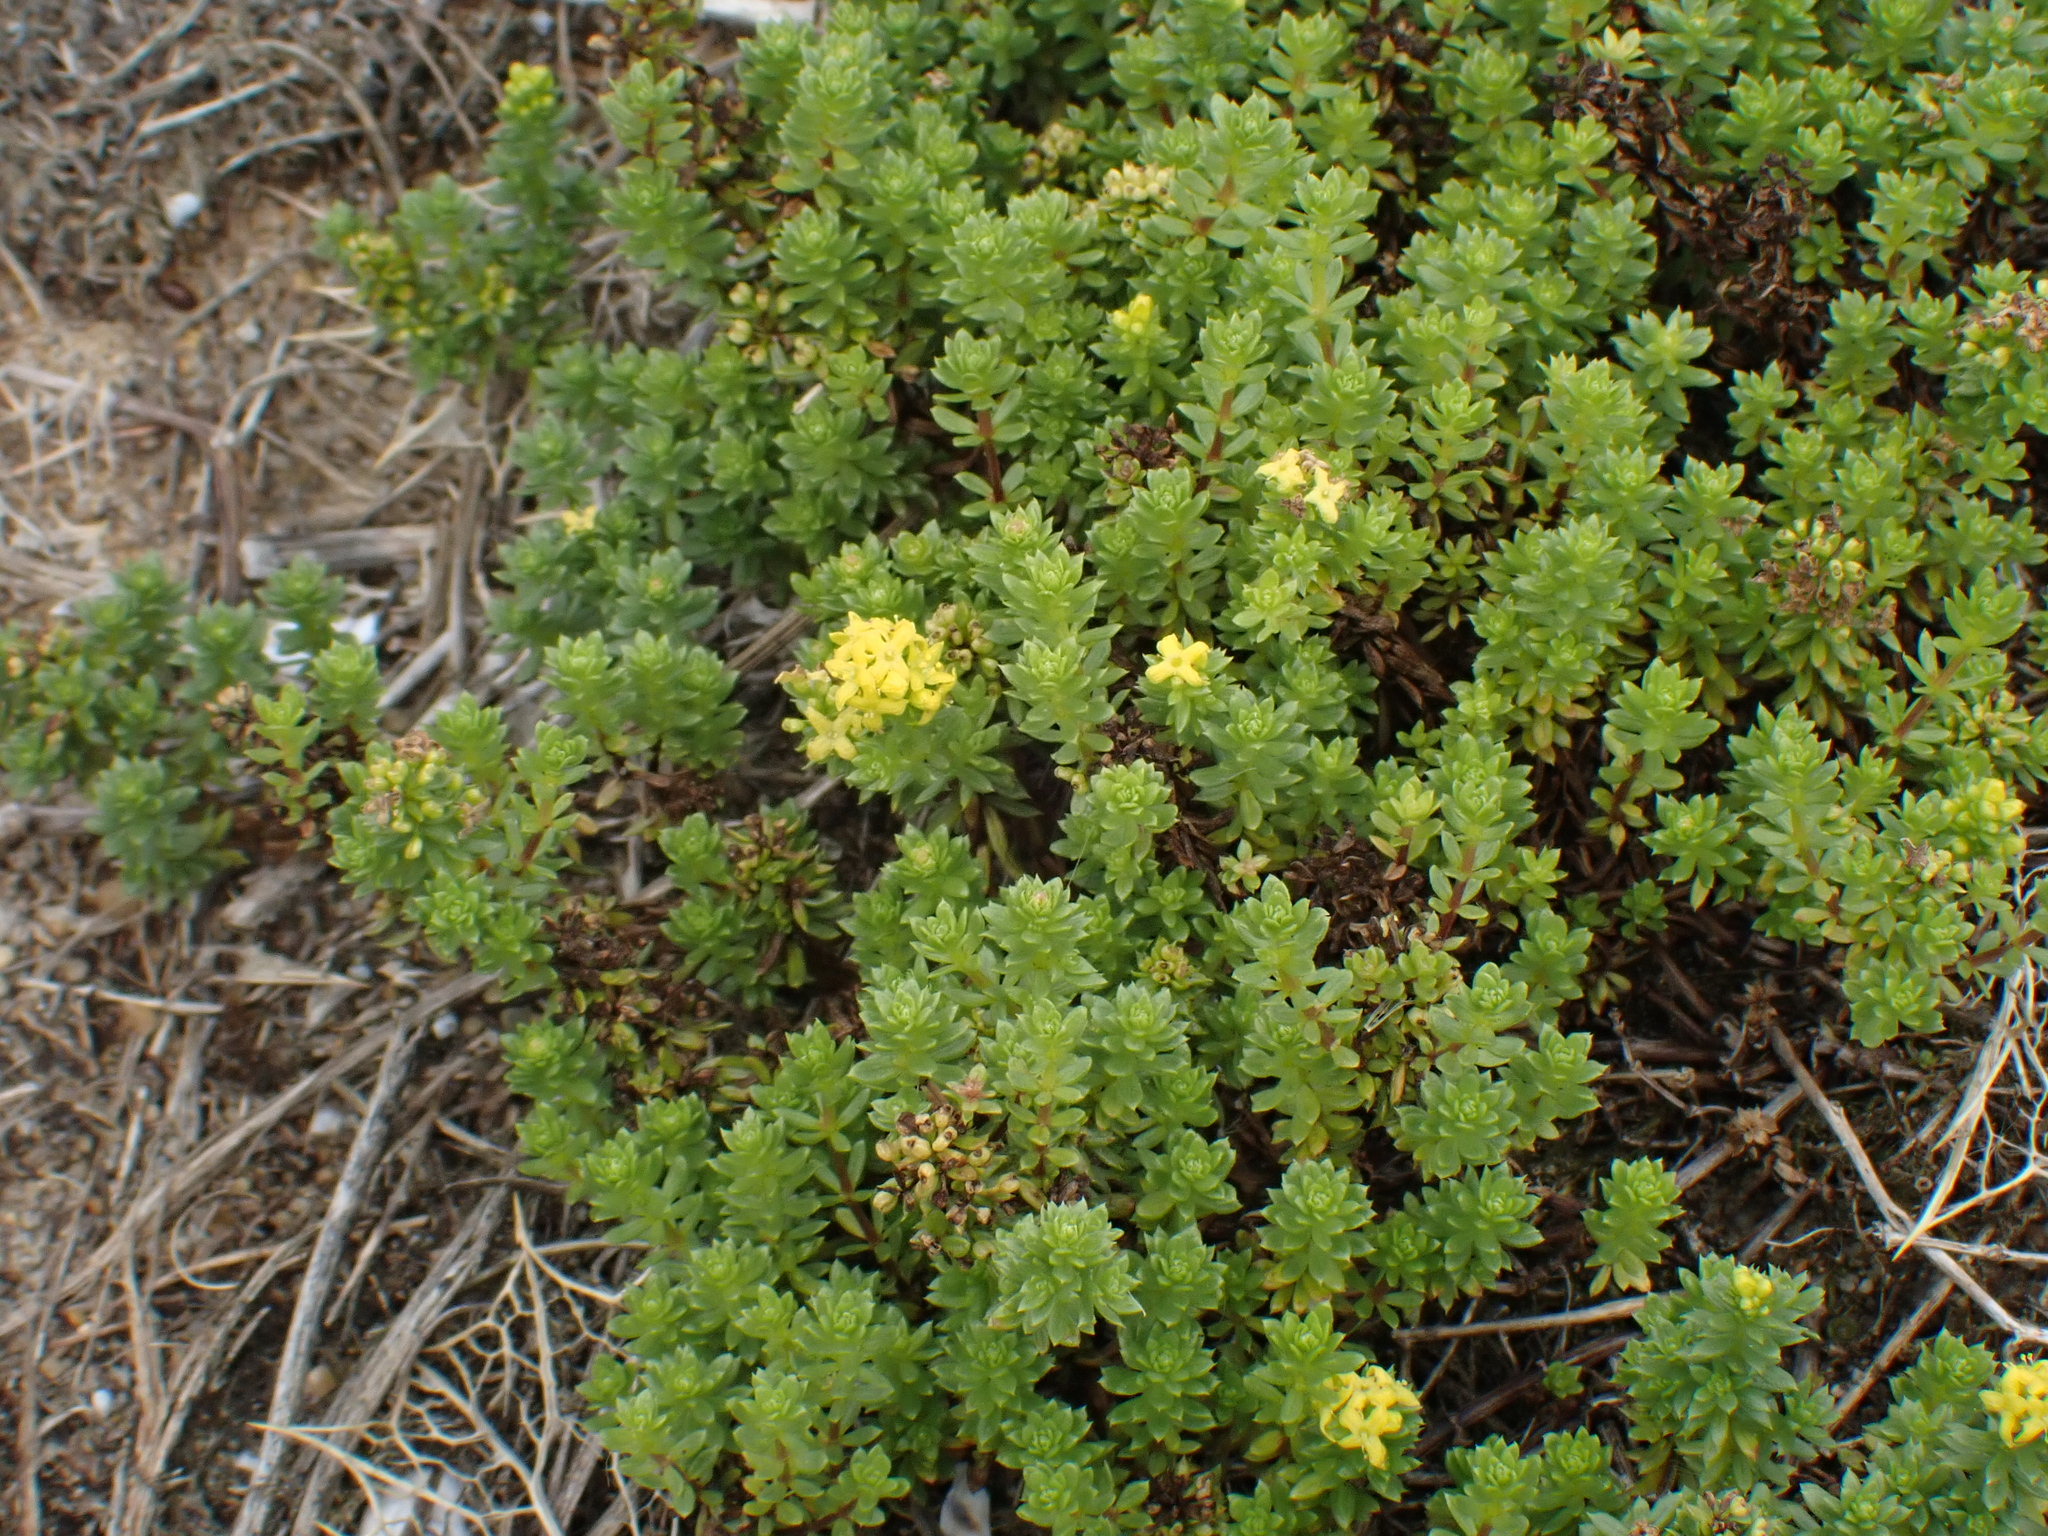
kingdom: Plantae
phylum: Tracheophyta
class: Magnoliopsida
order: Gentianales
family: Rubiaceae
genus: Galium
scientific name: Galium arenarium
